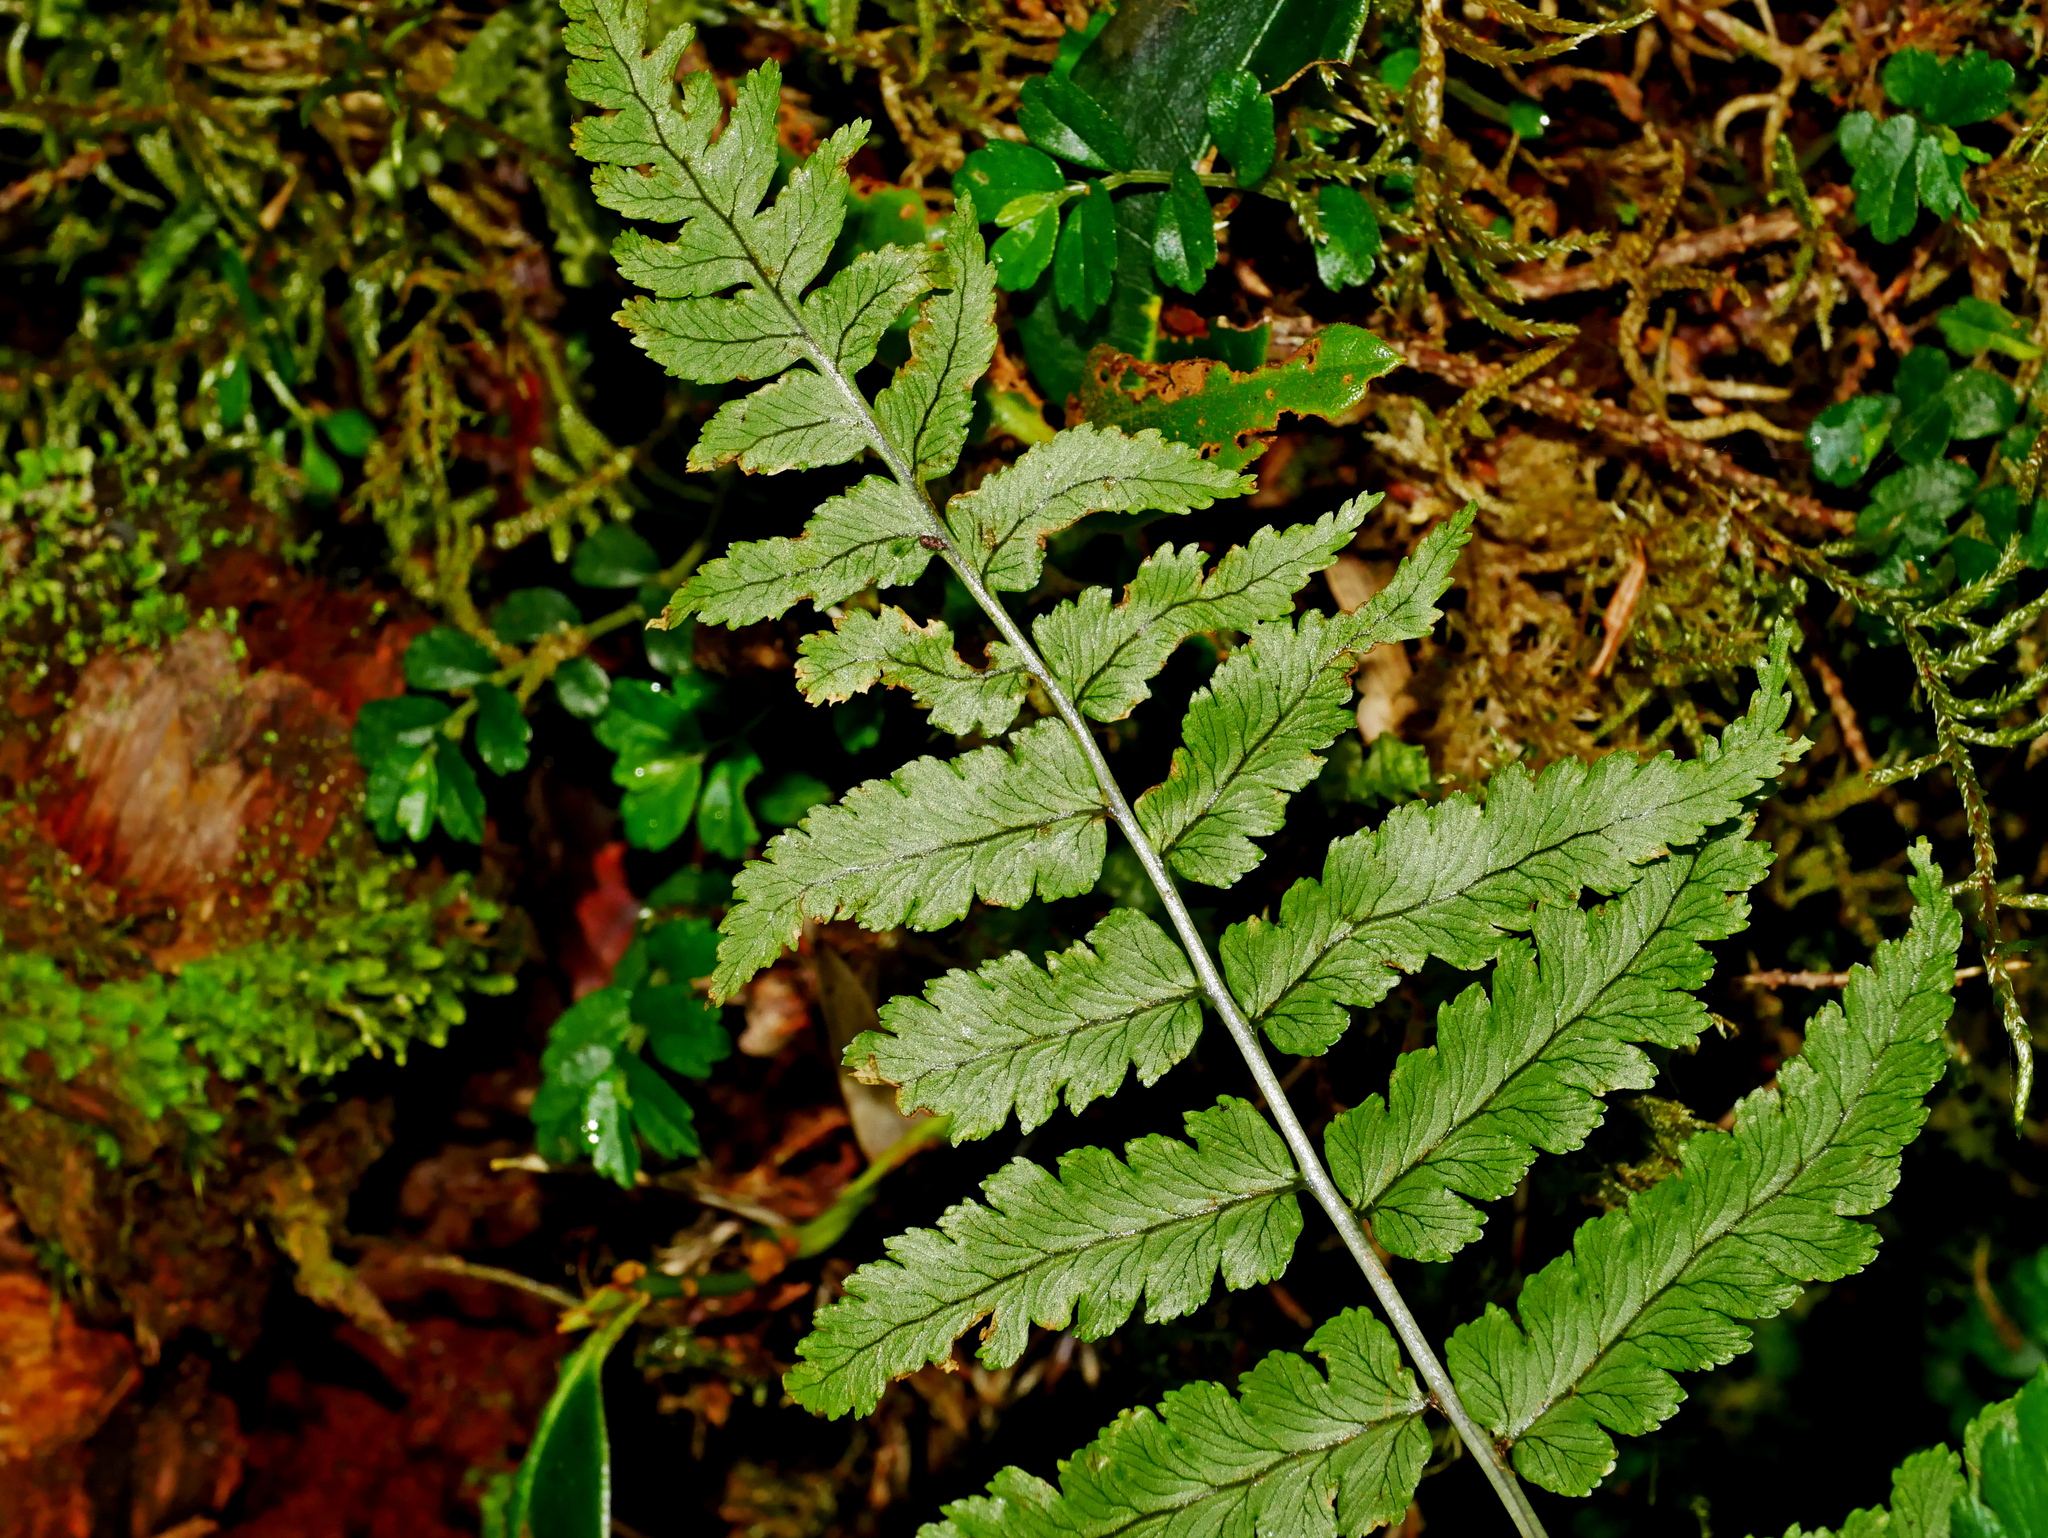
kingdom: Plantae
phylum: Tracheophyta
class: Polypodiopsida
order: Polypodiales
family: Dryopteridaceae
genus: Dryopteris
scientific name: Dryopteris costalisora
